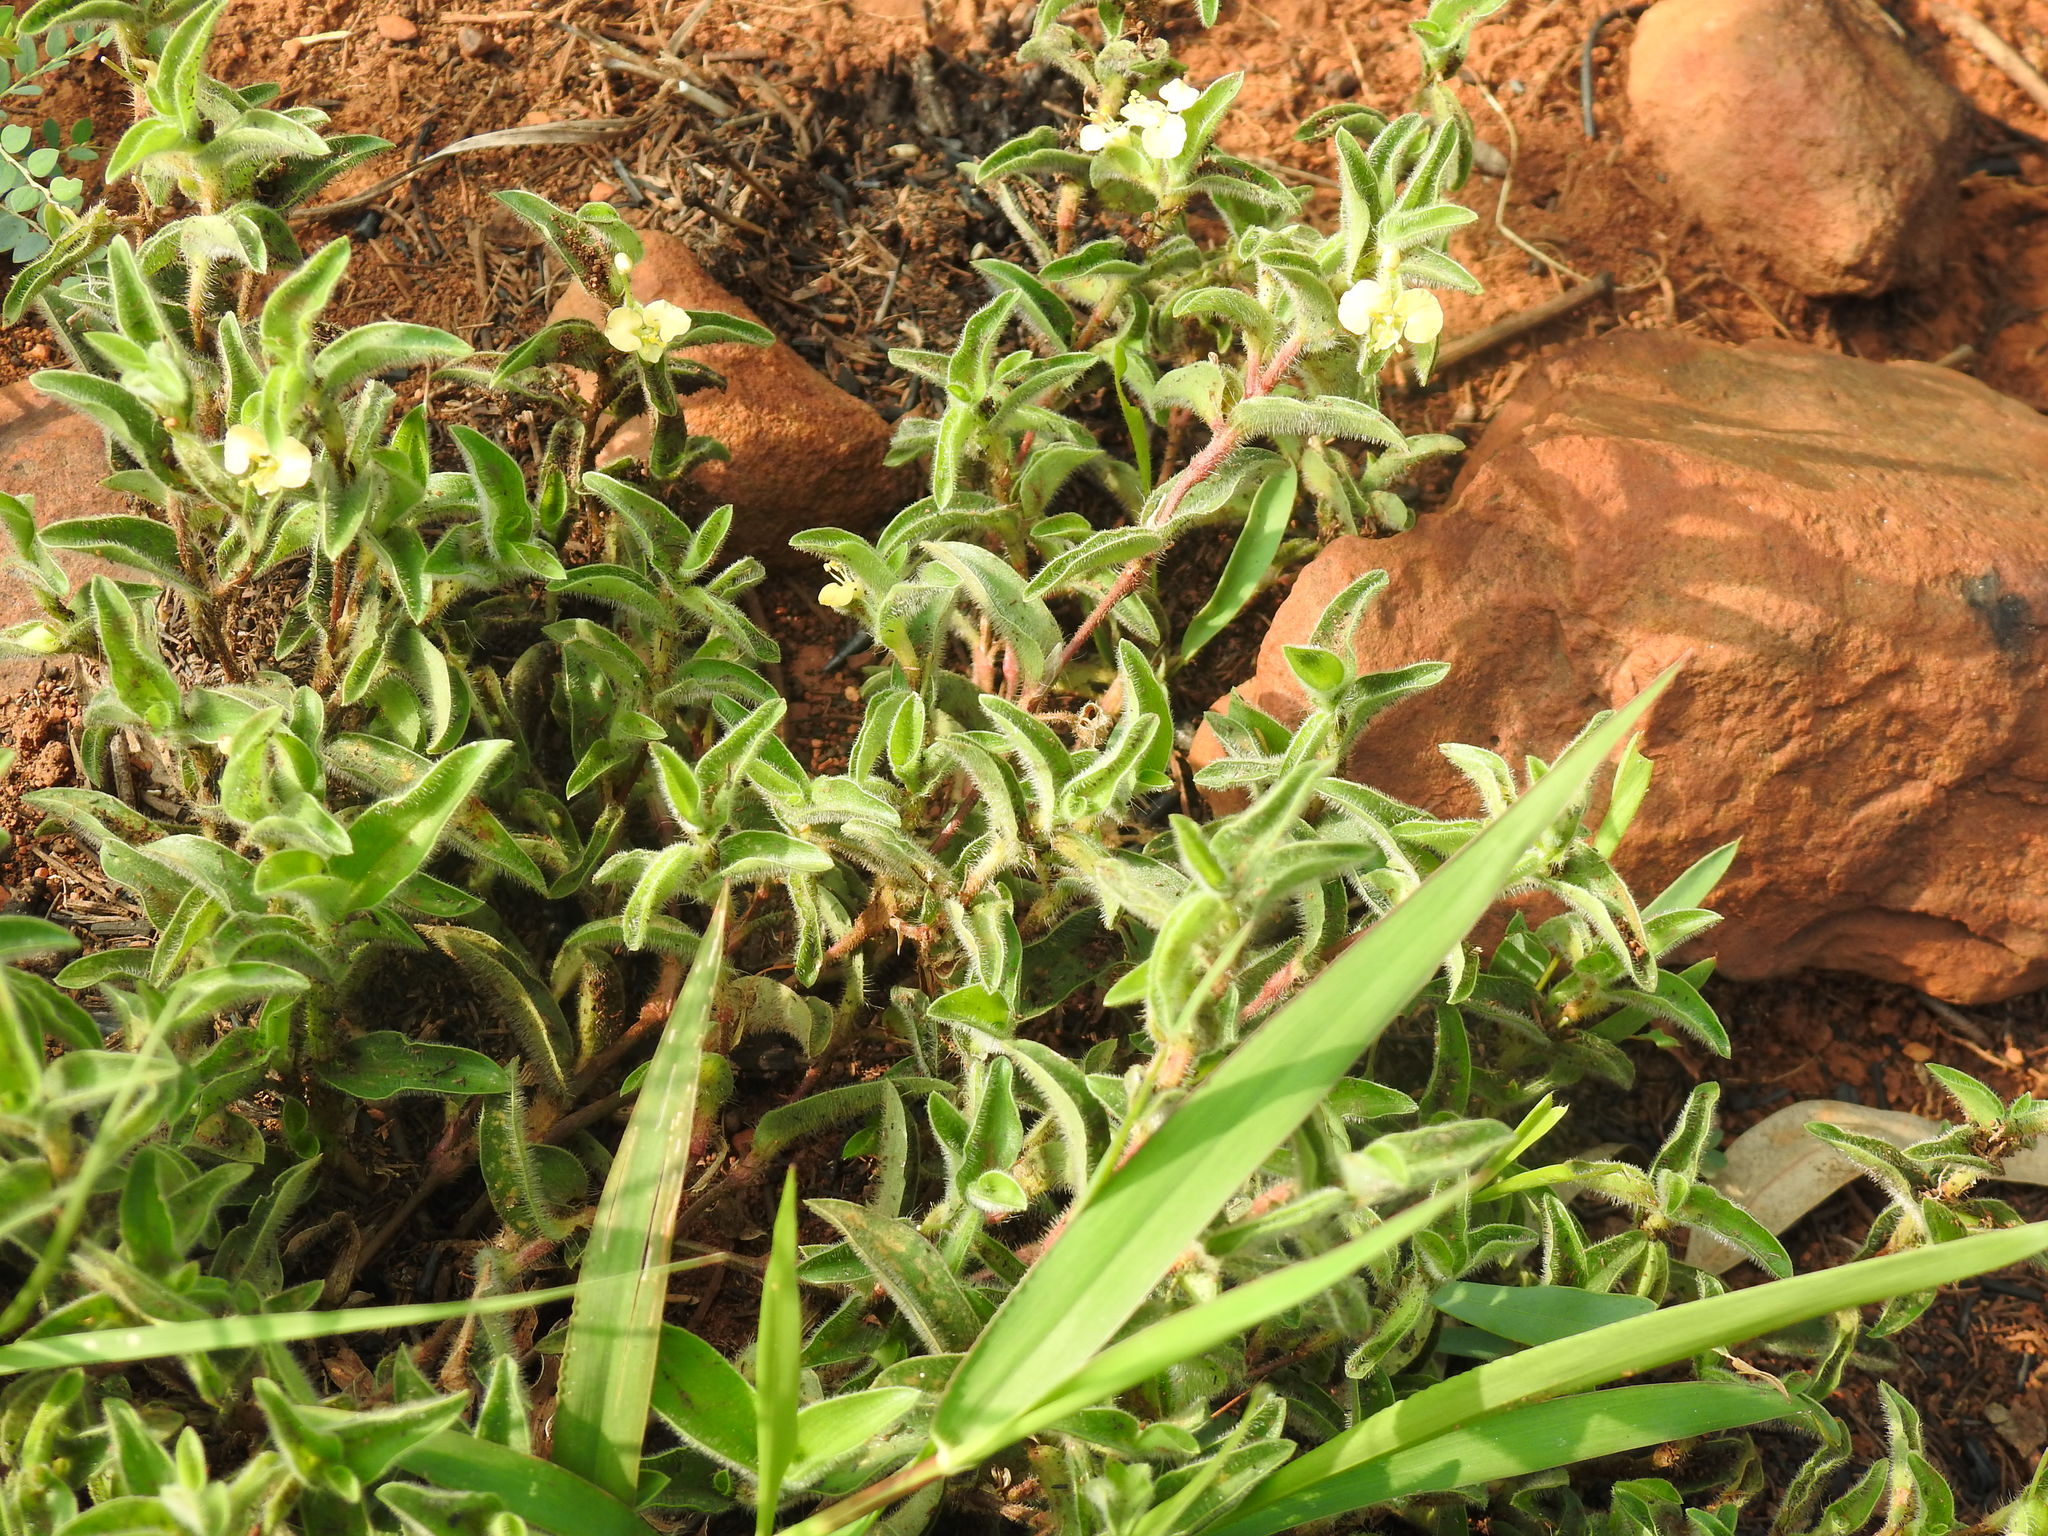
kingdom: Plantae
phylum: Tracheophyta
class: Liliopsida
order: Commelinales
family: Commelinaceae
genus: Commelina
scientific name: Commelina africana
